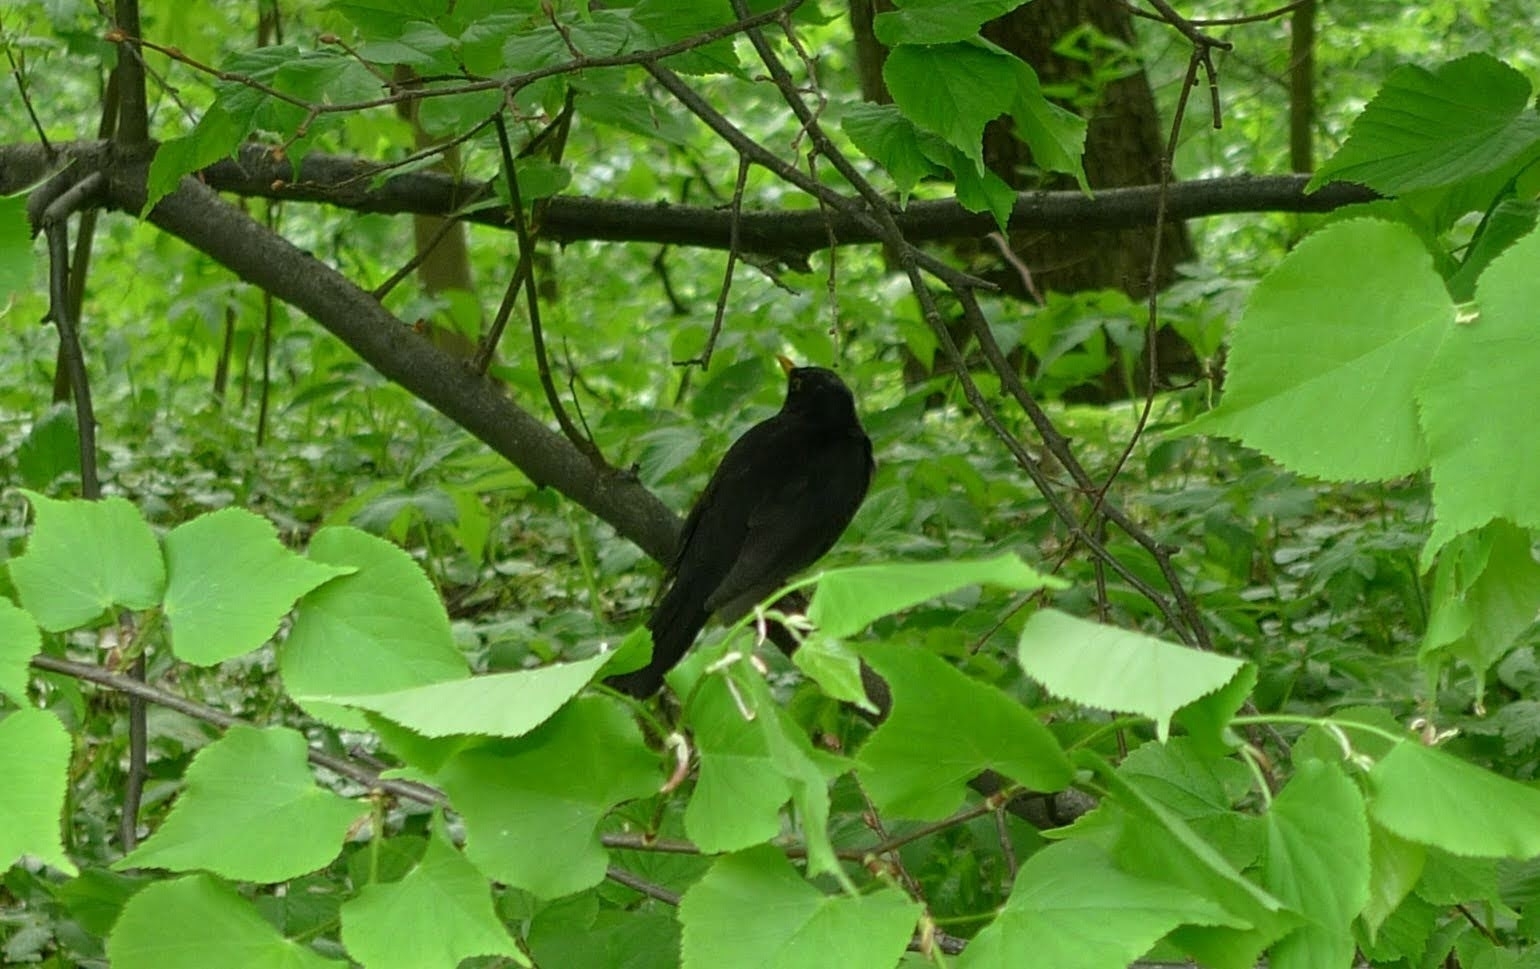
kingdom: Animalia
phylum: Chordata
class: Aves
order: Passeriformes
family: Turdidae
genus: Turdus
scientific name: Turdus merula
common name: Common blackbird
